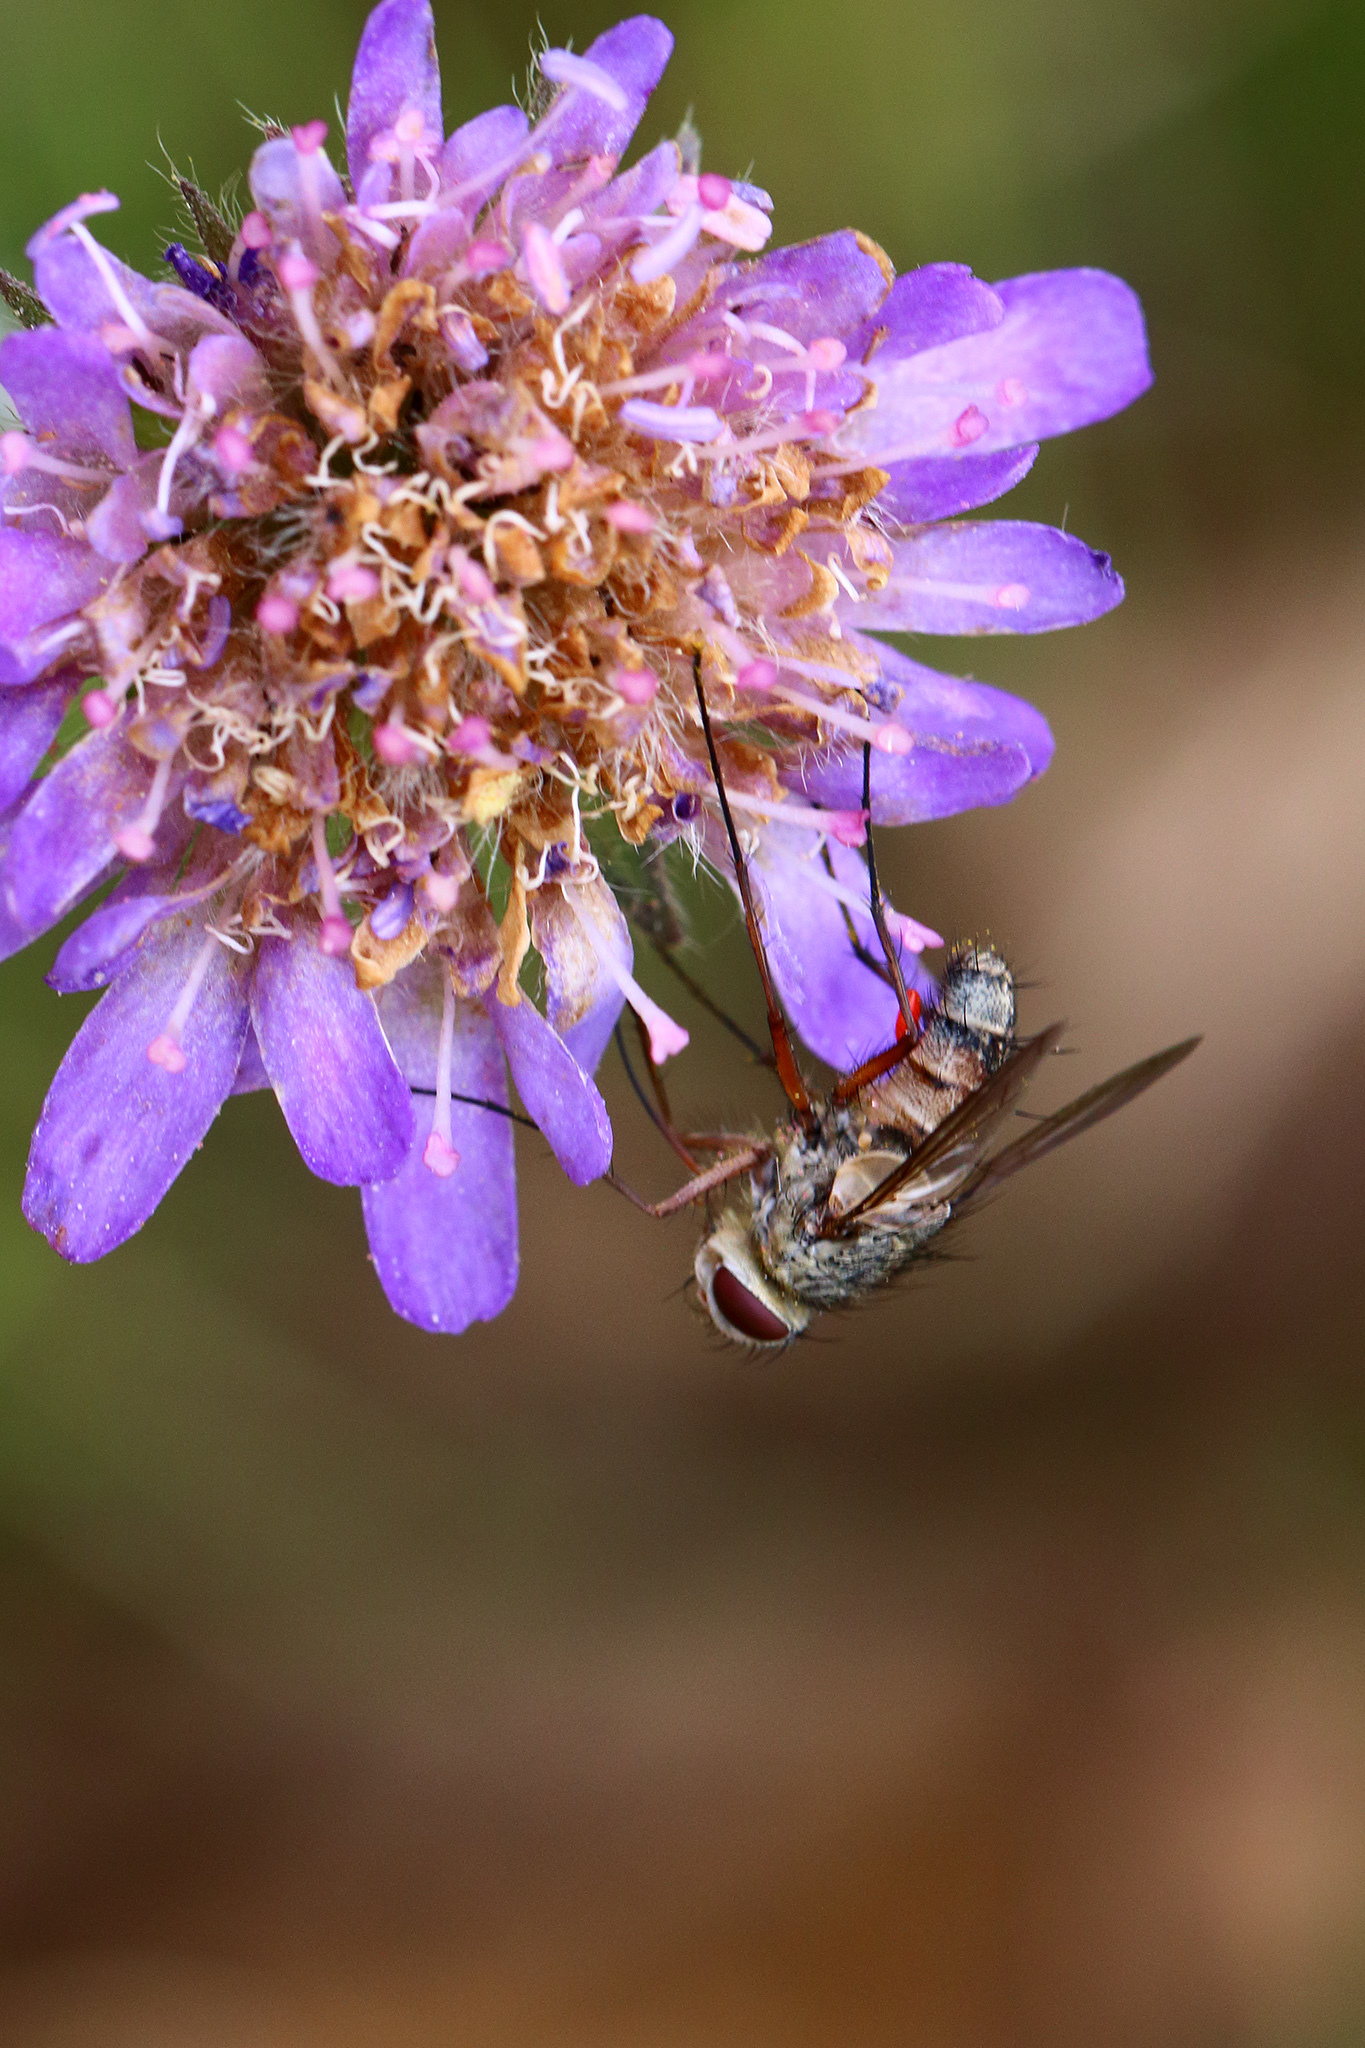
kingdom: Animalia
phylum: Arthropoda
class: Insecta
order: Diptera
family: Tachinidae
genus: Prosena
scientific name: Prosena siberita
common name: Parasitic fly
